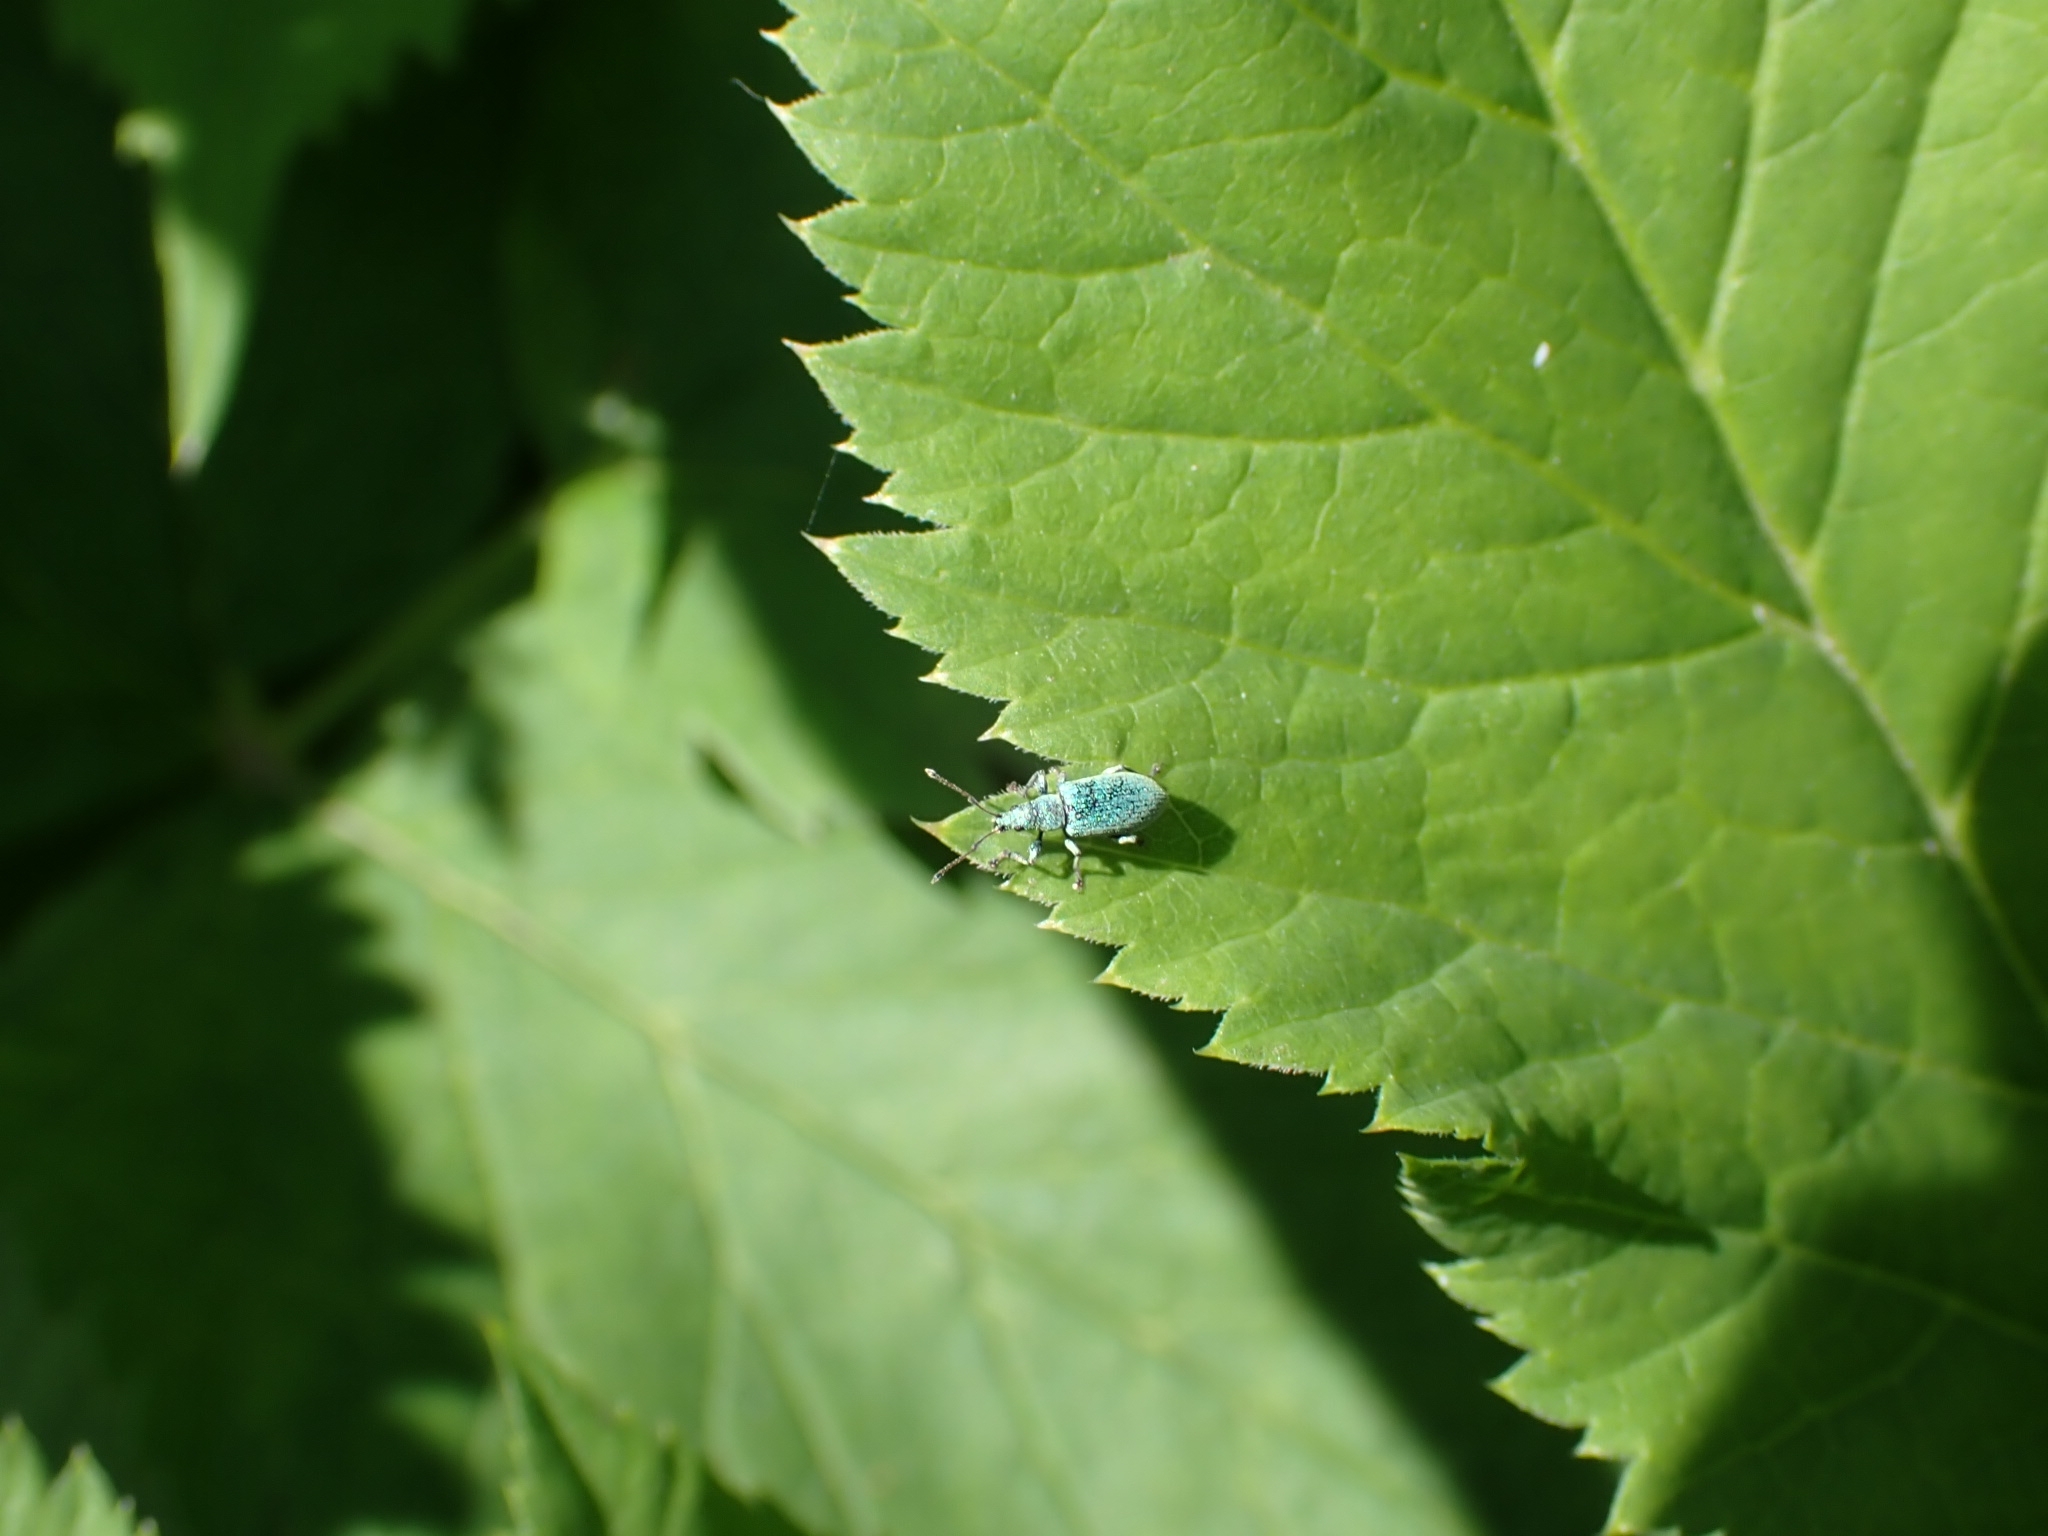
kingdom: Animalia
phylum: Arthropoda
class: Insecta
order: Coleoptera
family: Curculionidae
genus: Phyllobius
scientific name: Phyllobius maculicornis
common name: Green leaf weevil
